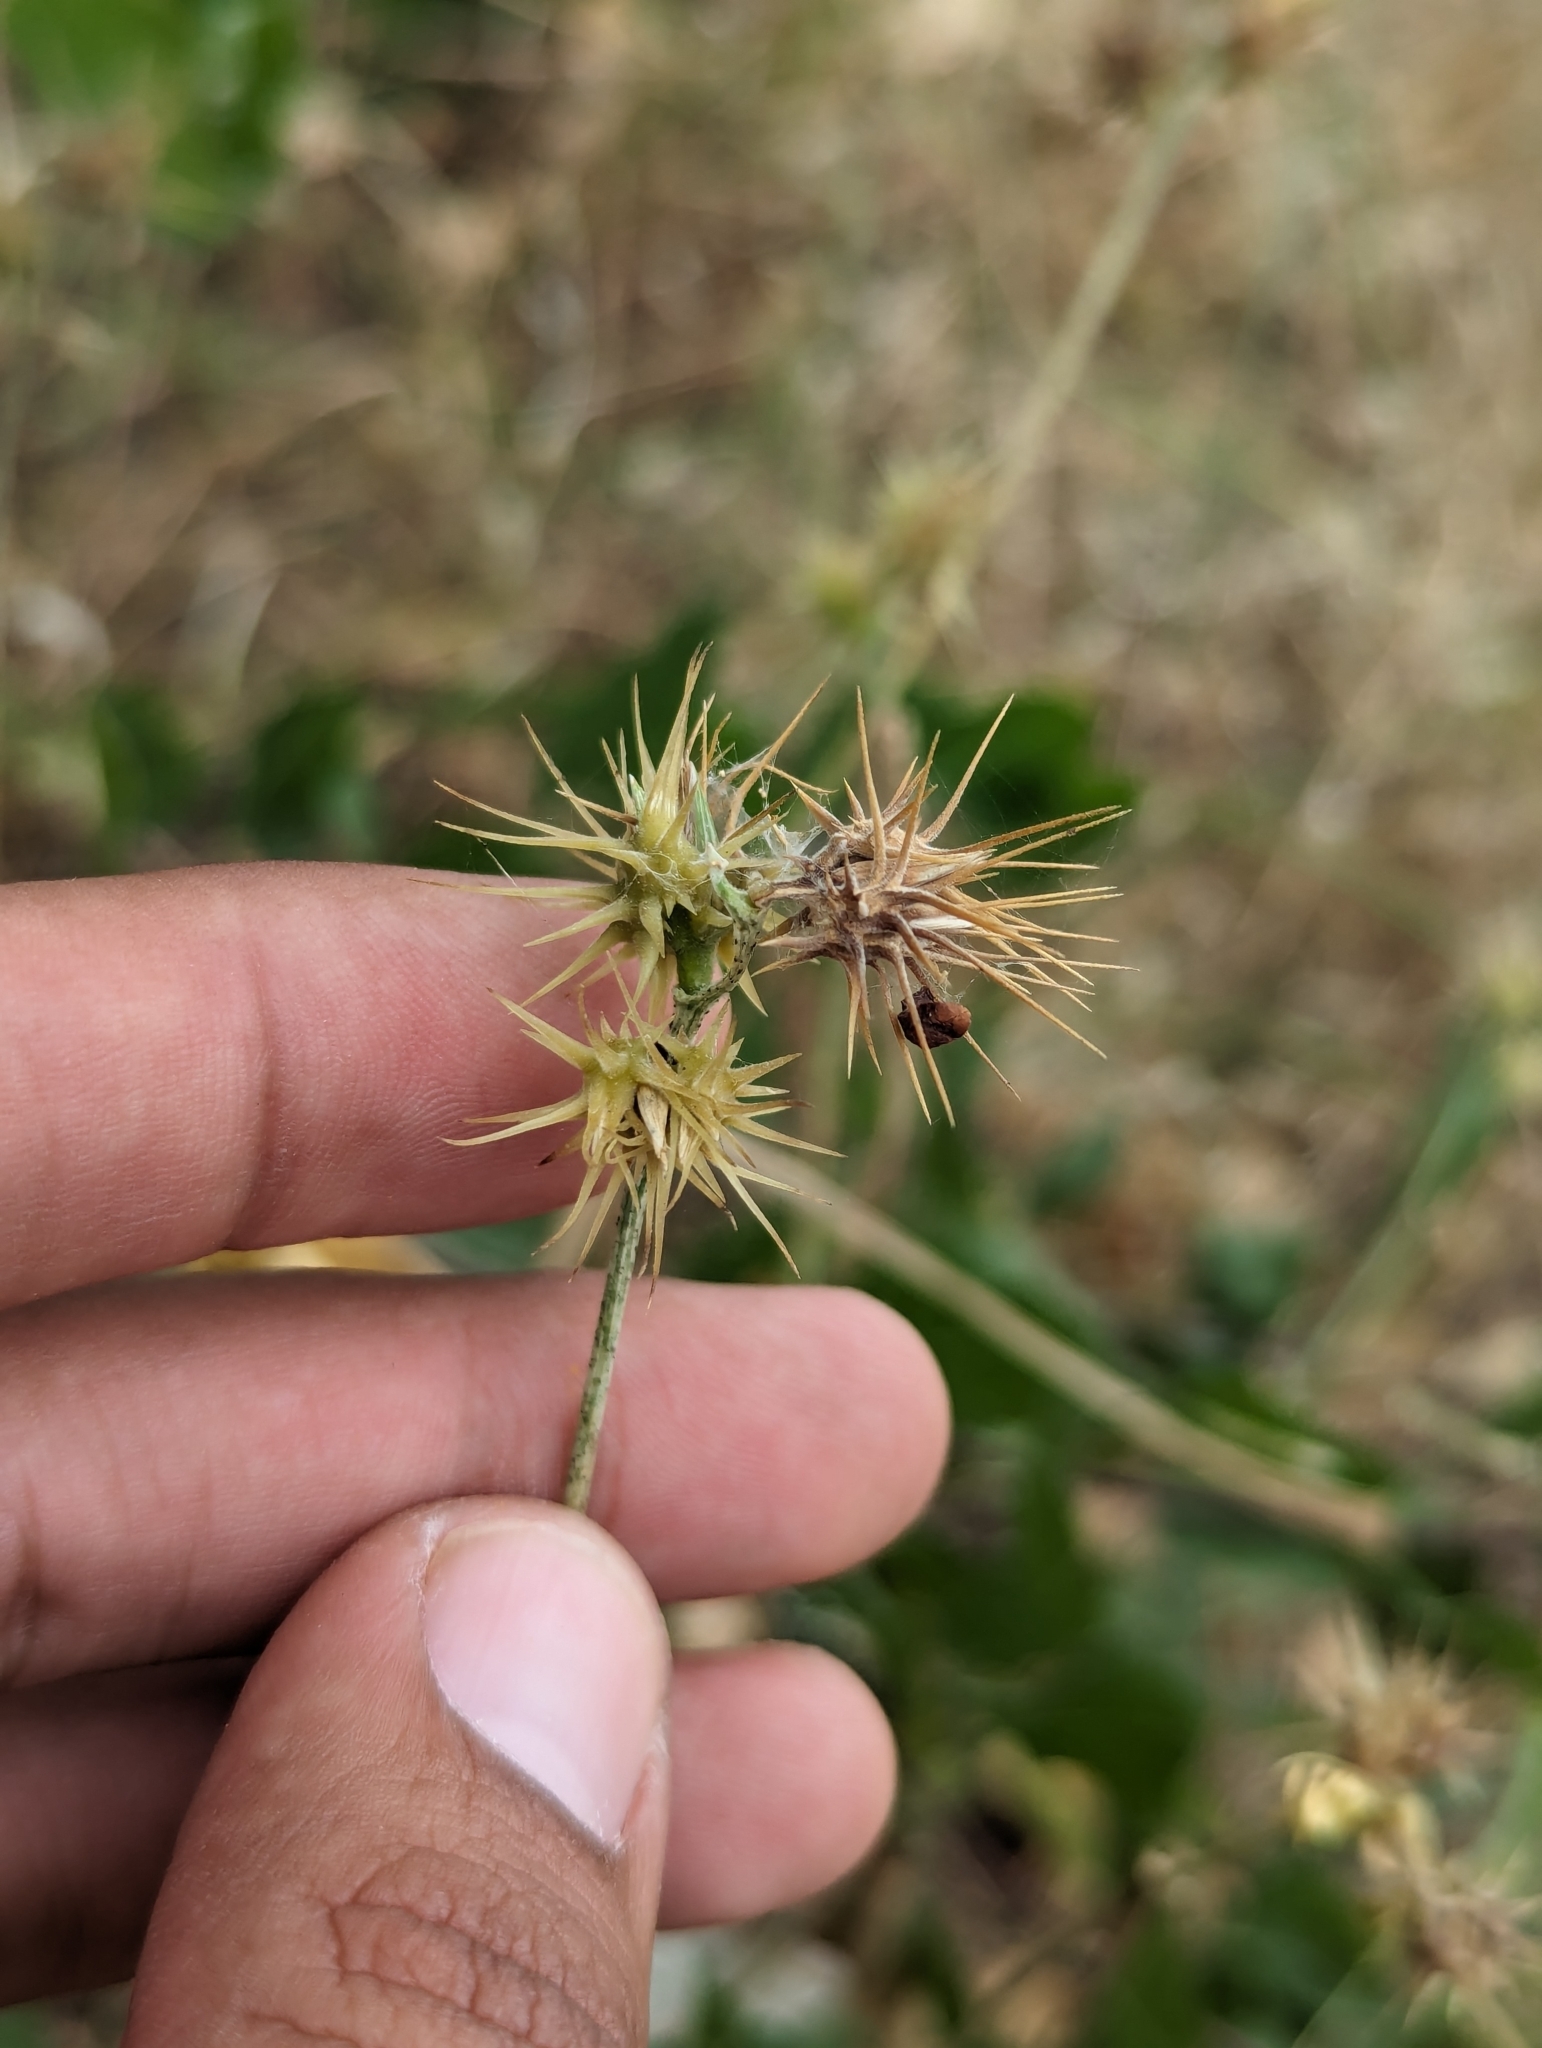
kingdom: Plantae
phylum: Tracheophyta
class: Liliopsida
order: Poales
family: Poaceae
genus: Cenchrus
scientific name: Cenchrus palmeri
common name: Giant sandbur
